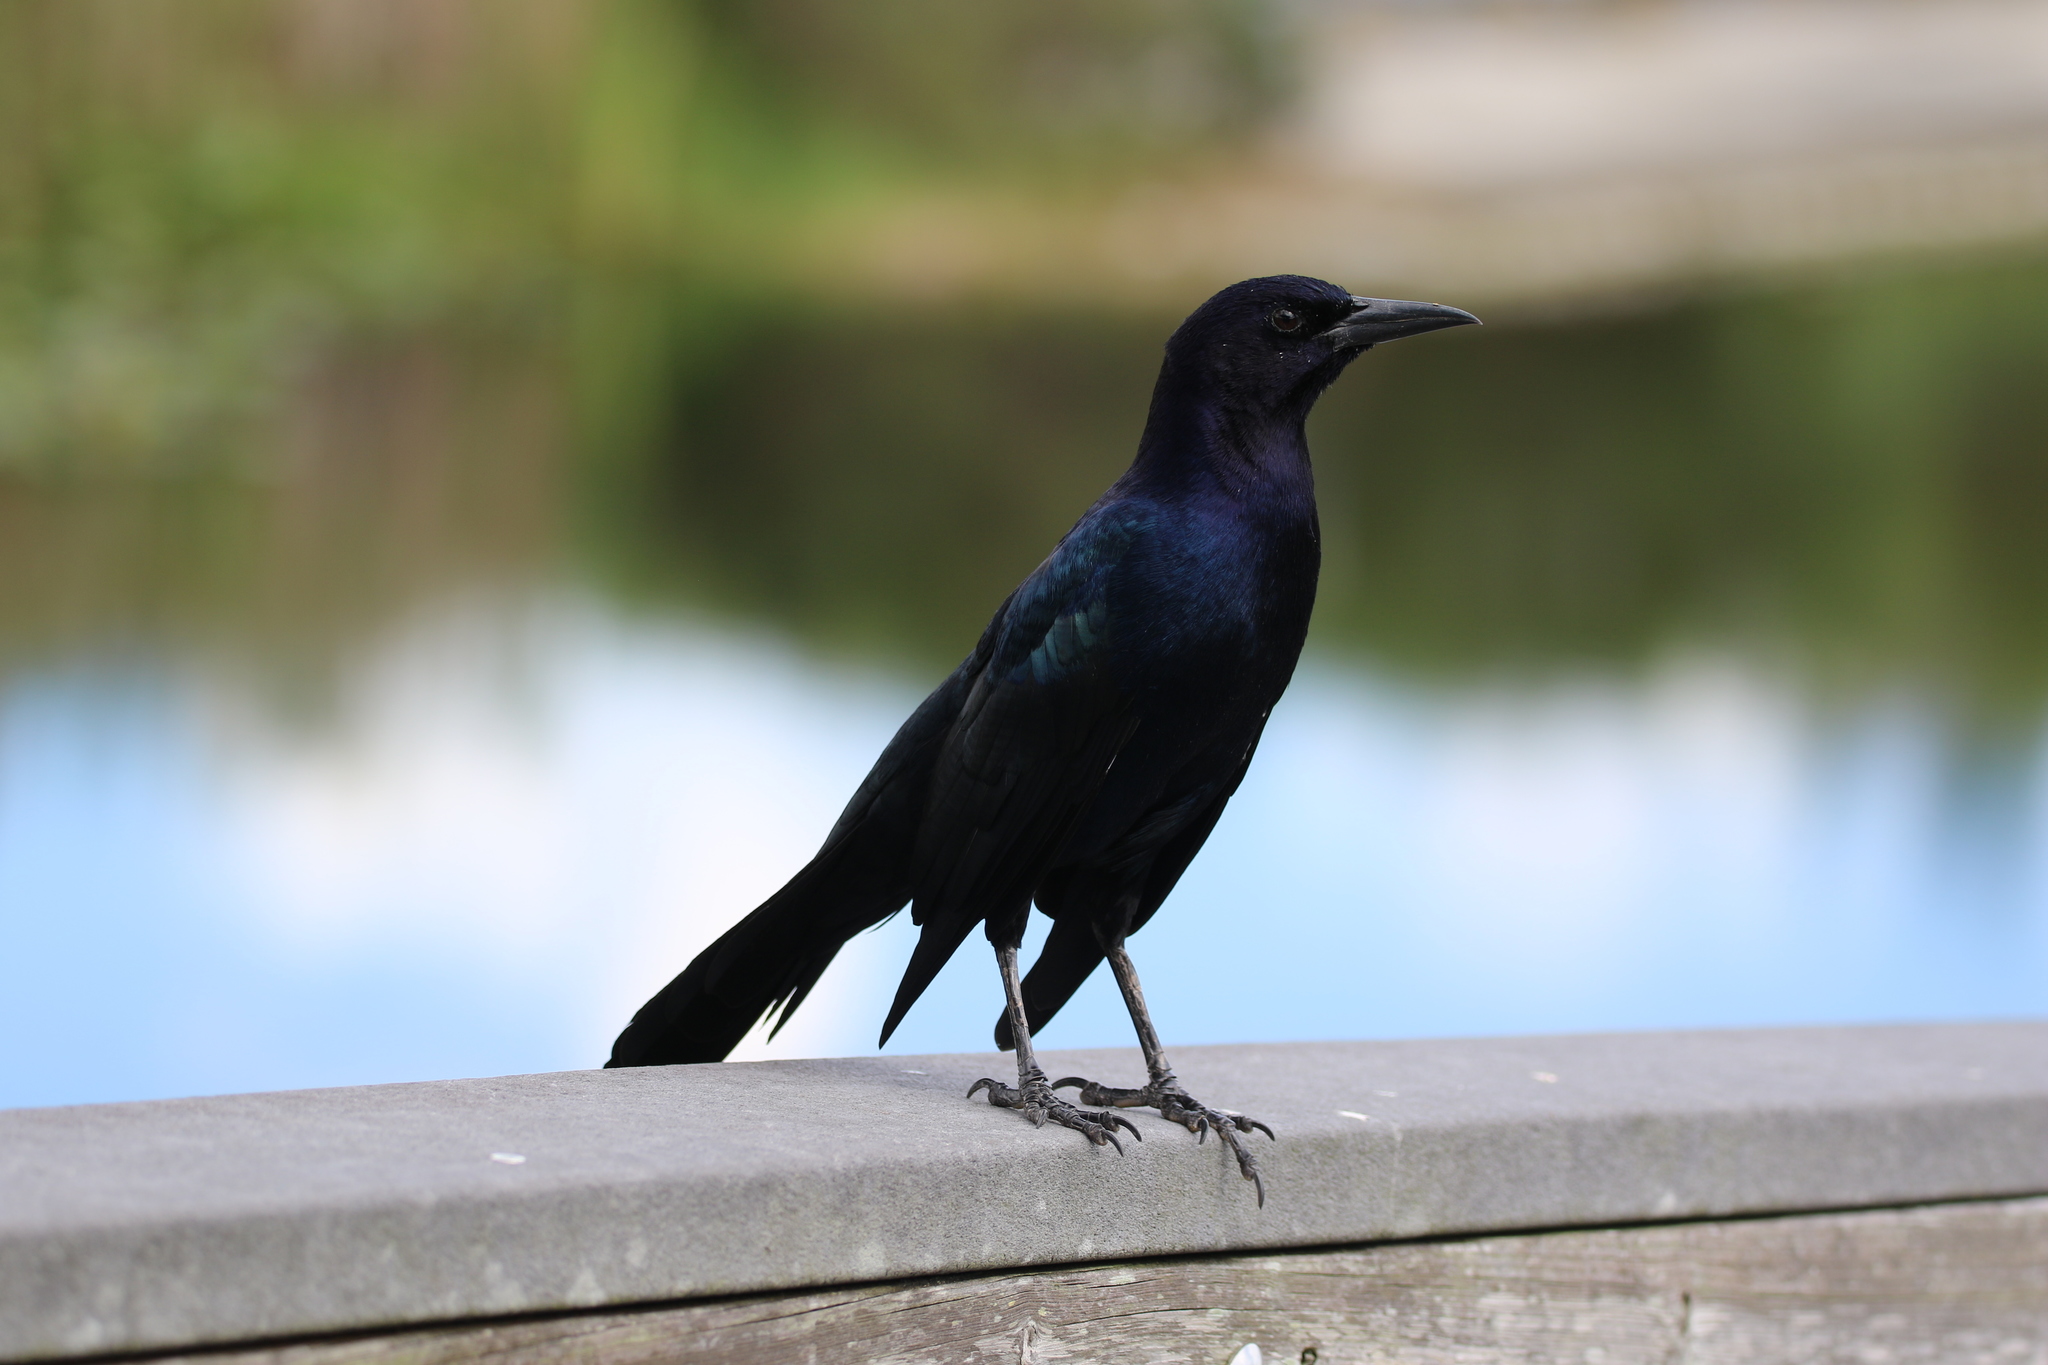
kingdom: Animalia
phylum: Chordata
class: Aves
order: Passeriformes
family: Icteridae
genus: Quiscalus
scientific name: Quiscalus major
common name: Boat-tailed grackle
